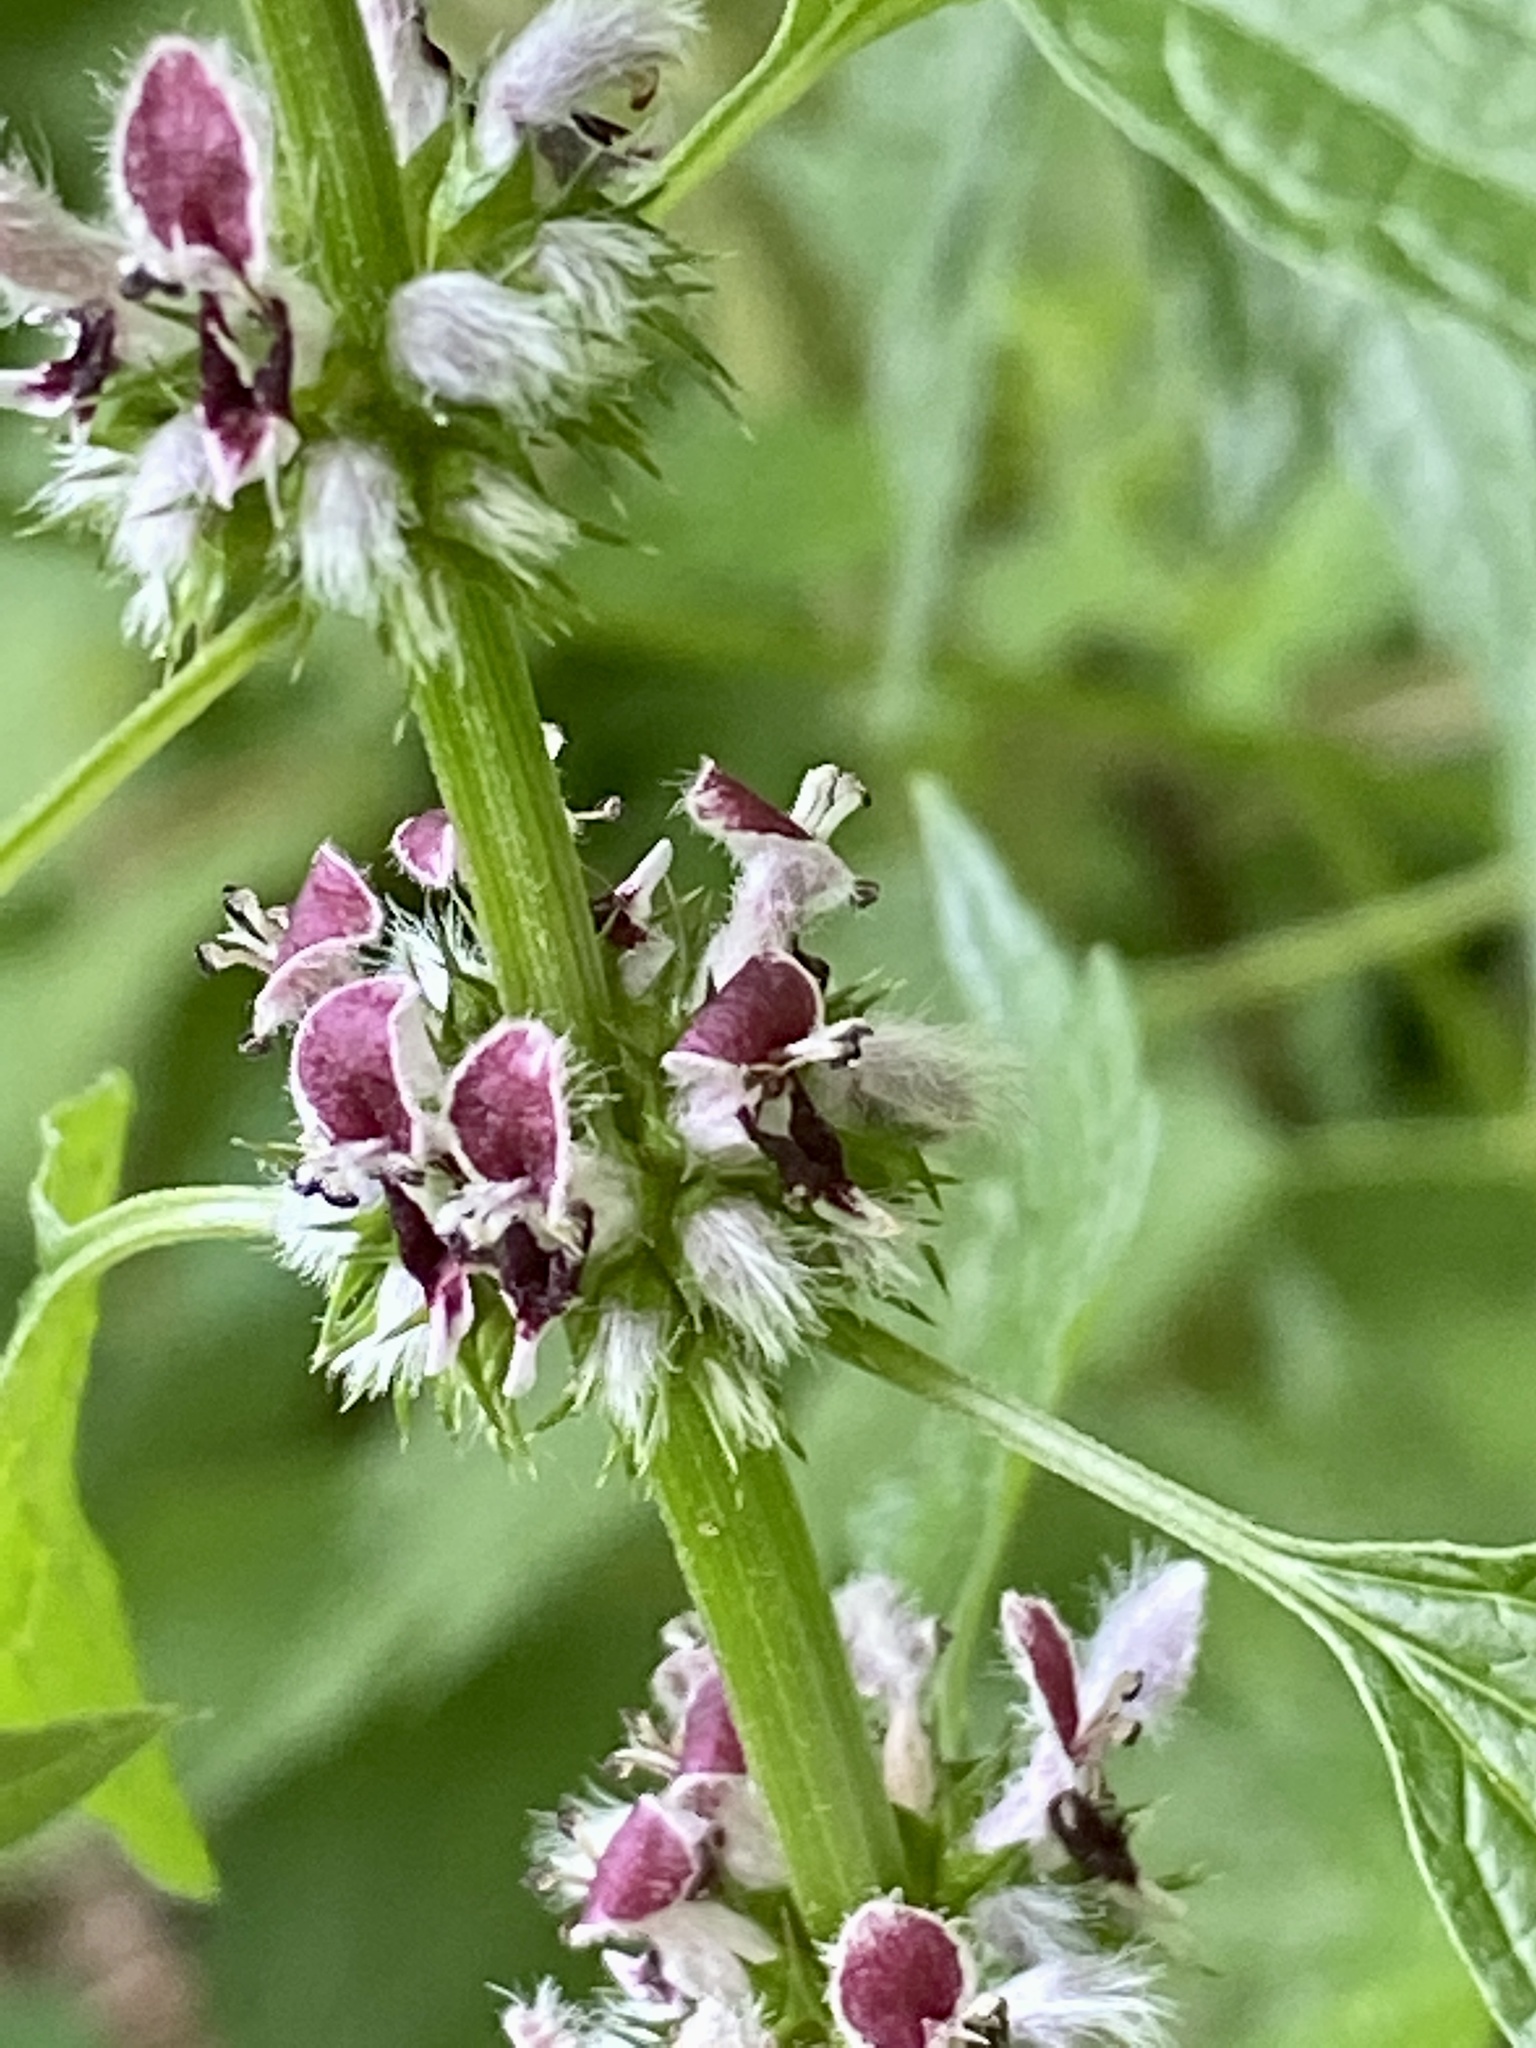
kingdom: Plantae
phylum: Tracheophyta
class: Magnoliopsida
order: Lamiales
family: Lamiaceae
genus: Leonurus
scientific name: Leonurus cardiaca
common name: Motherwort
